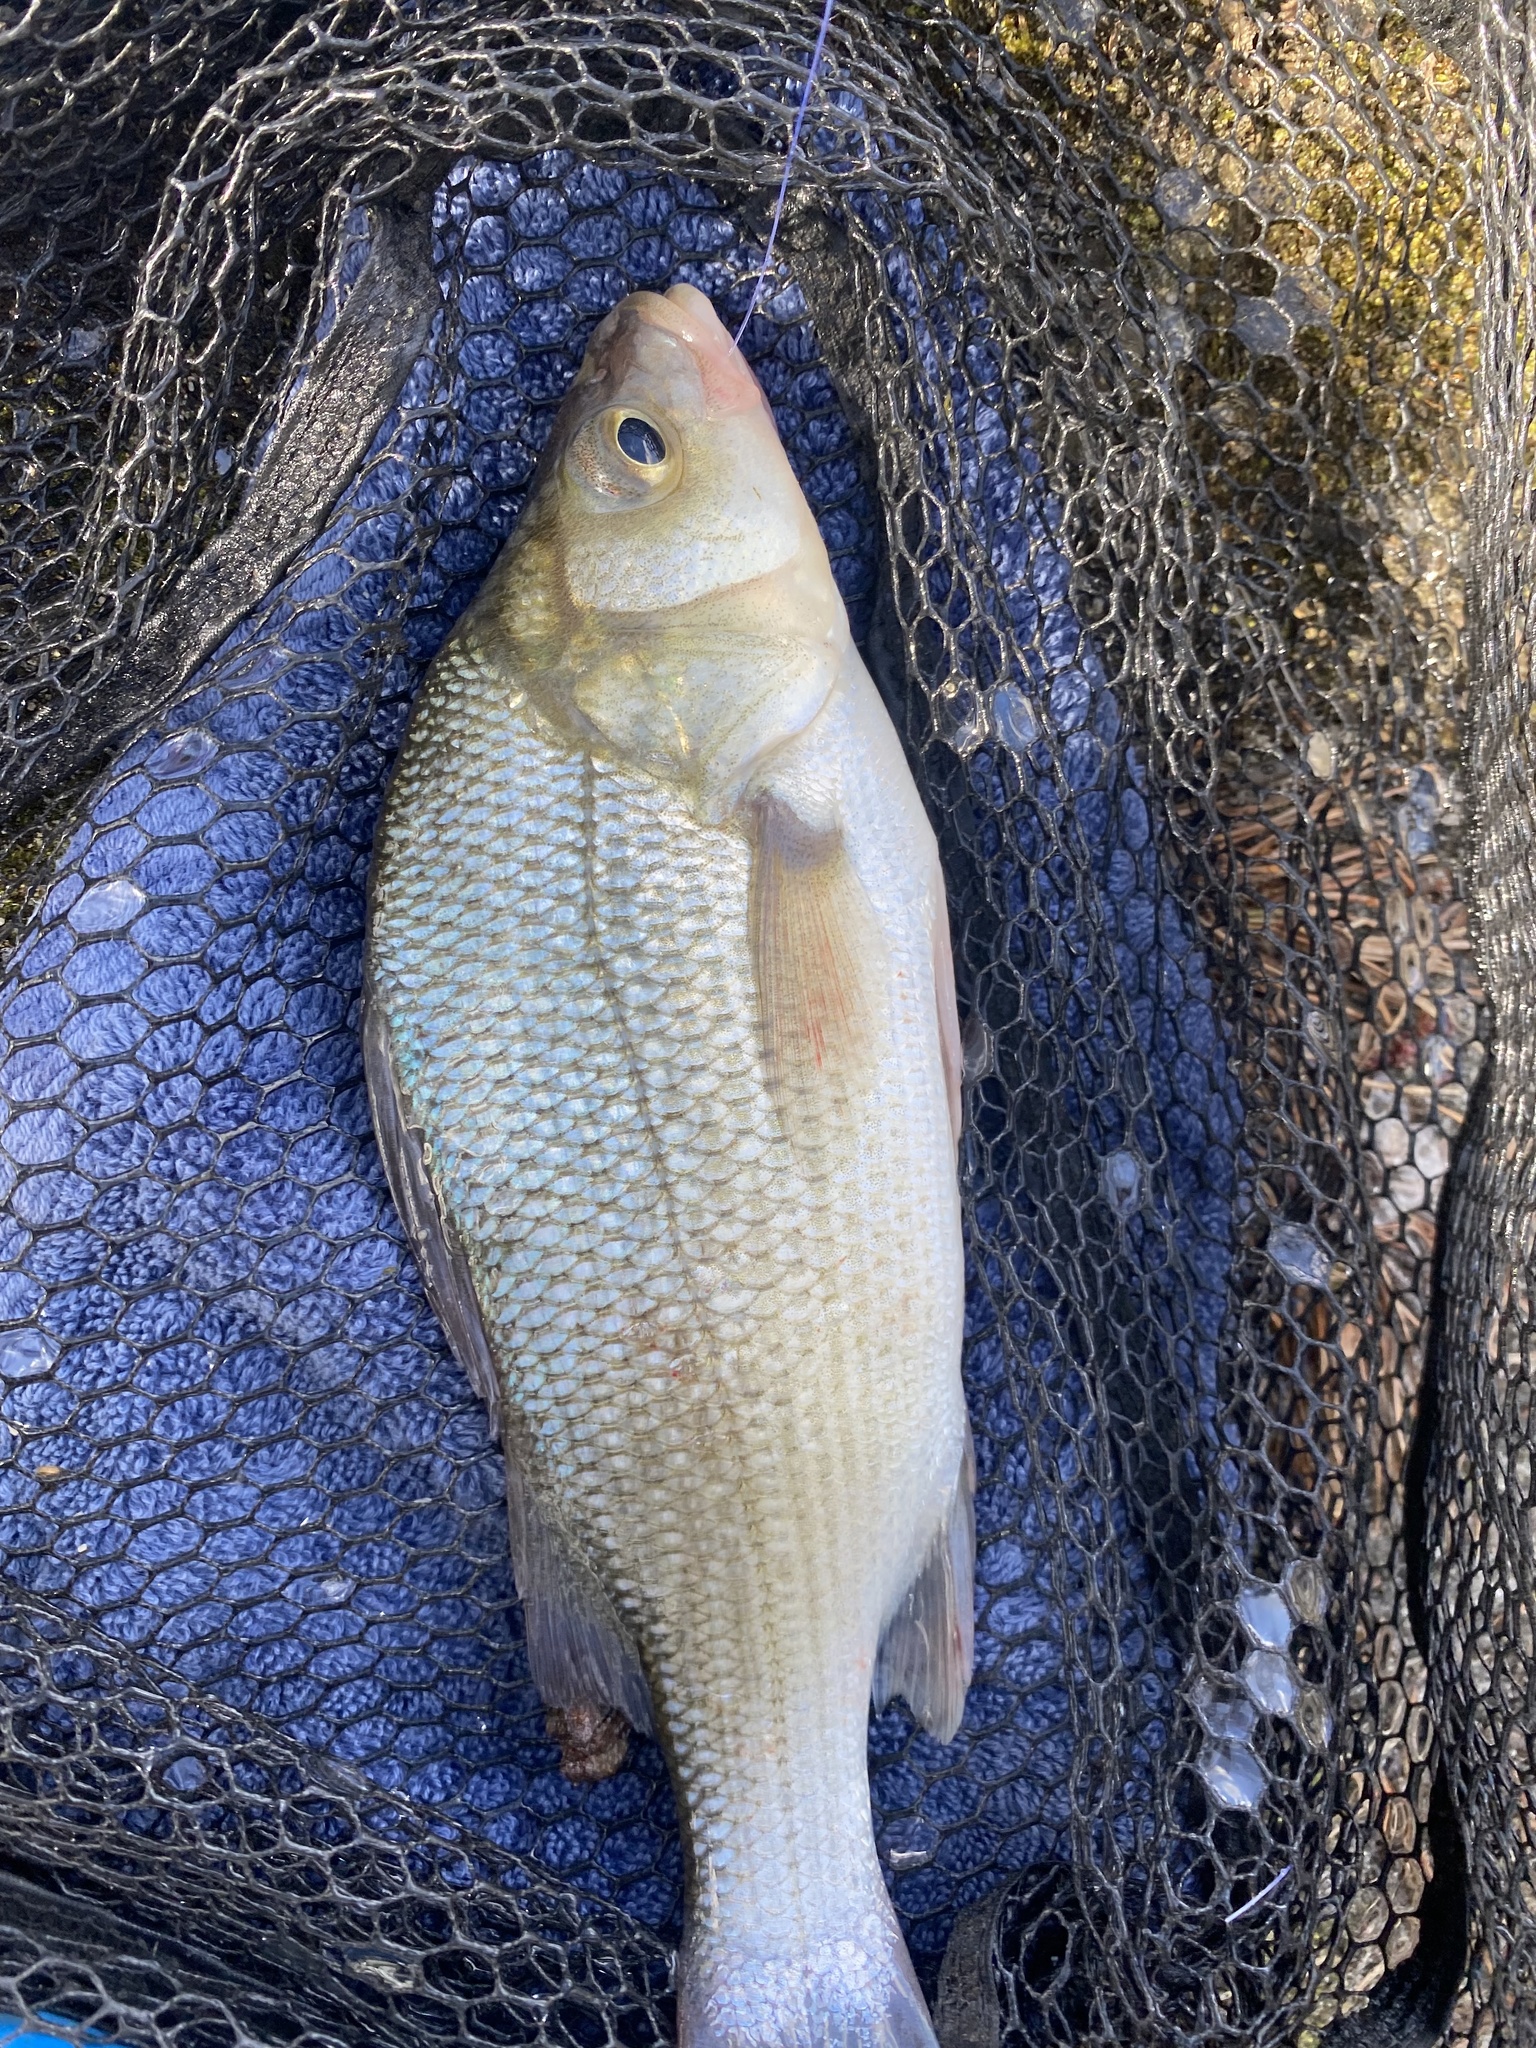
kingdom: Animalia
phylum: Chordata
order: Perciformes
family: Moronidae
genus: Morone
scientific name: Morone americana
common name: White perch
